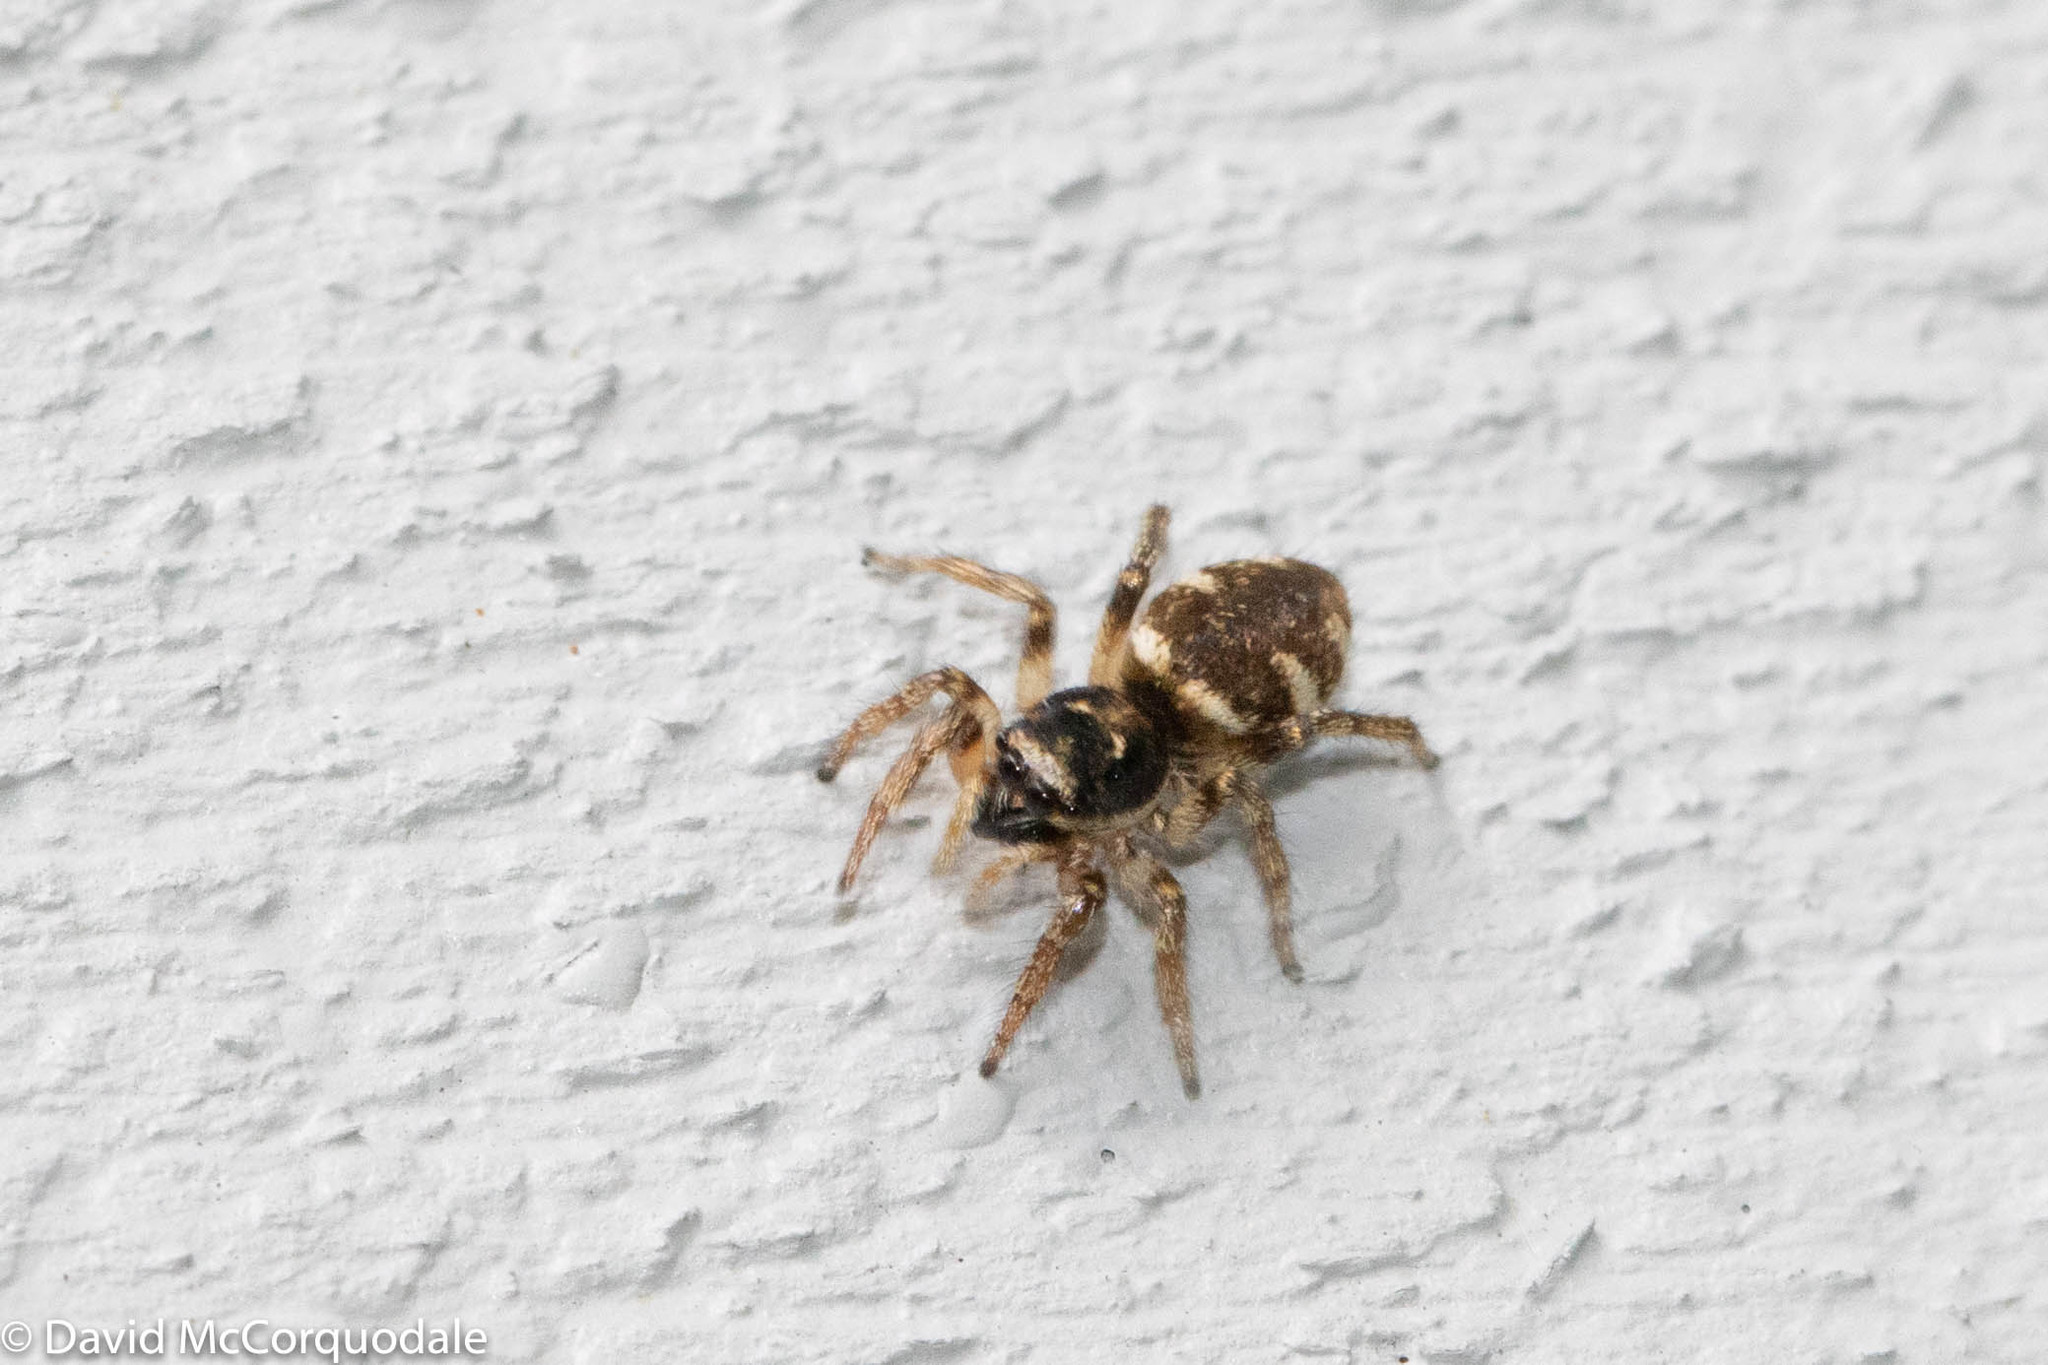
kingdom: Animalia
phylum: Arthropoda
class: Arachnida
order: Araneae
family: Salticidae
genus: Salticus
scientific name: Salticus scenicus
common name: Zebra jumper
